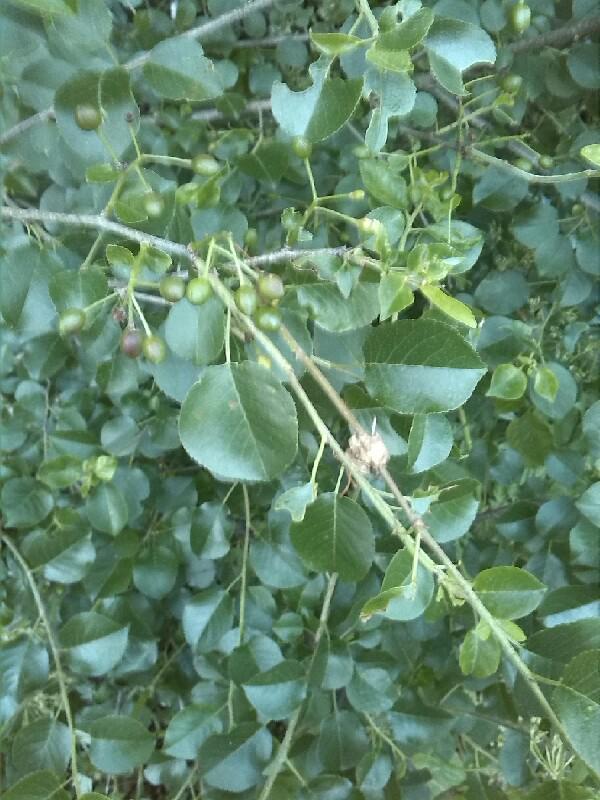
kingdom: Plantae
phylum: Tracheophyta
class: Magnoliopsida
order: Rosales
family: Rosaceae
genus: Prunus
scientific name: Prunus mahaleb
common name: Mahaleb cherry
